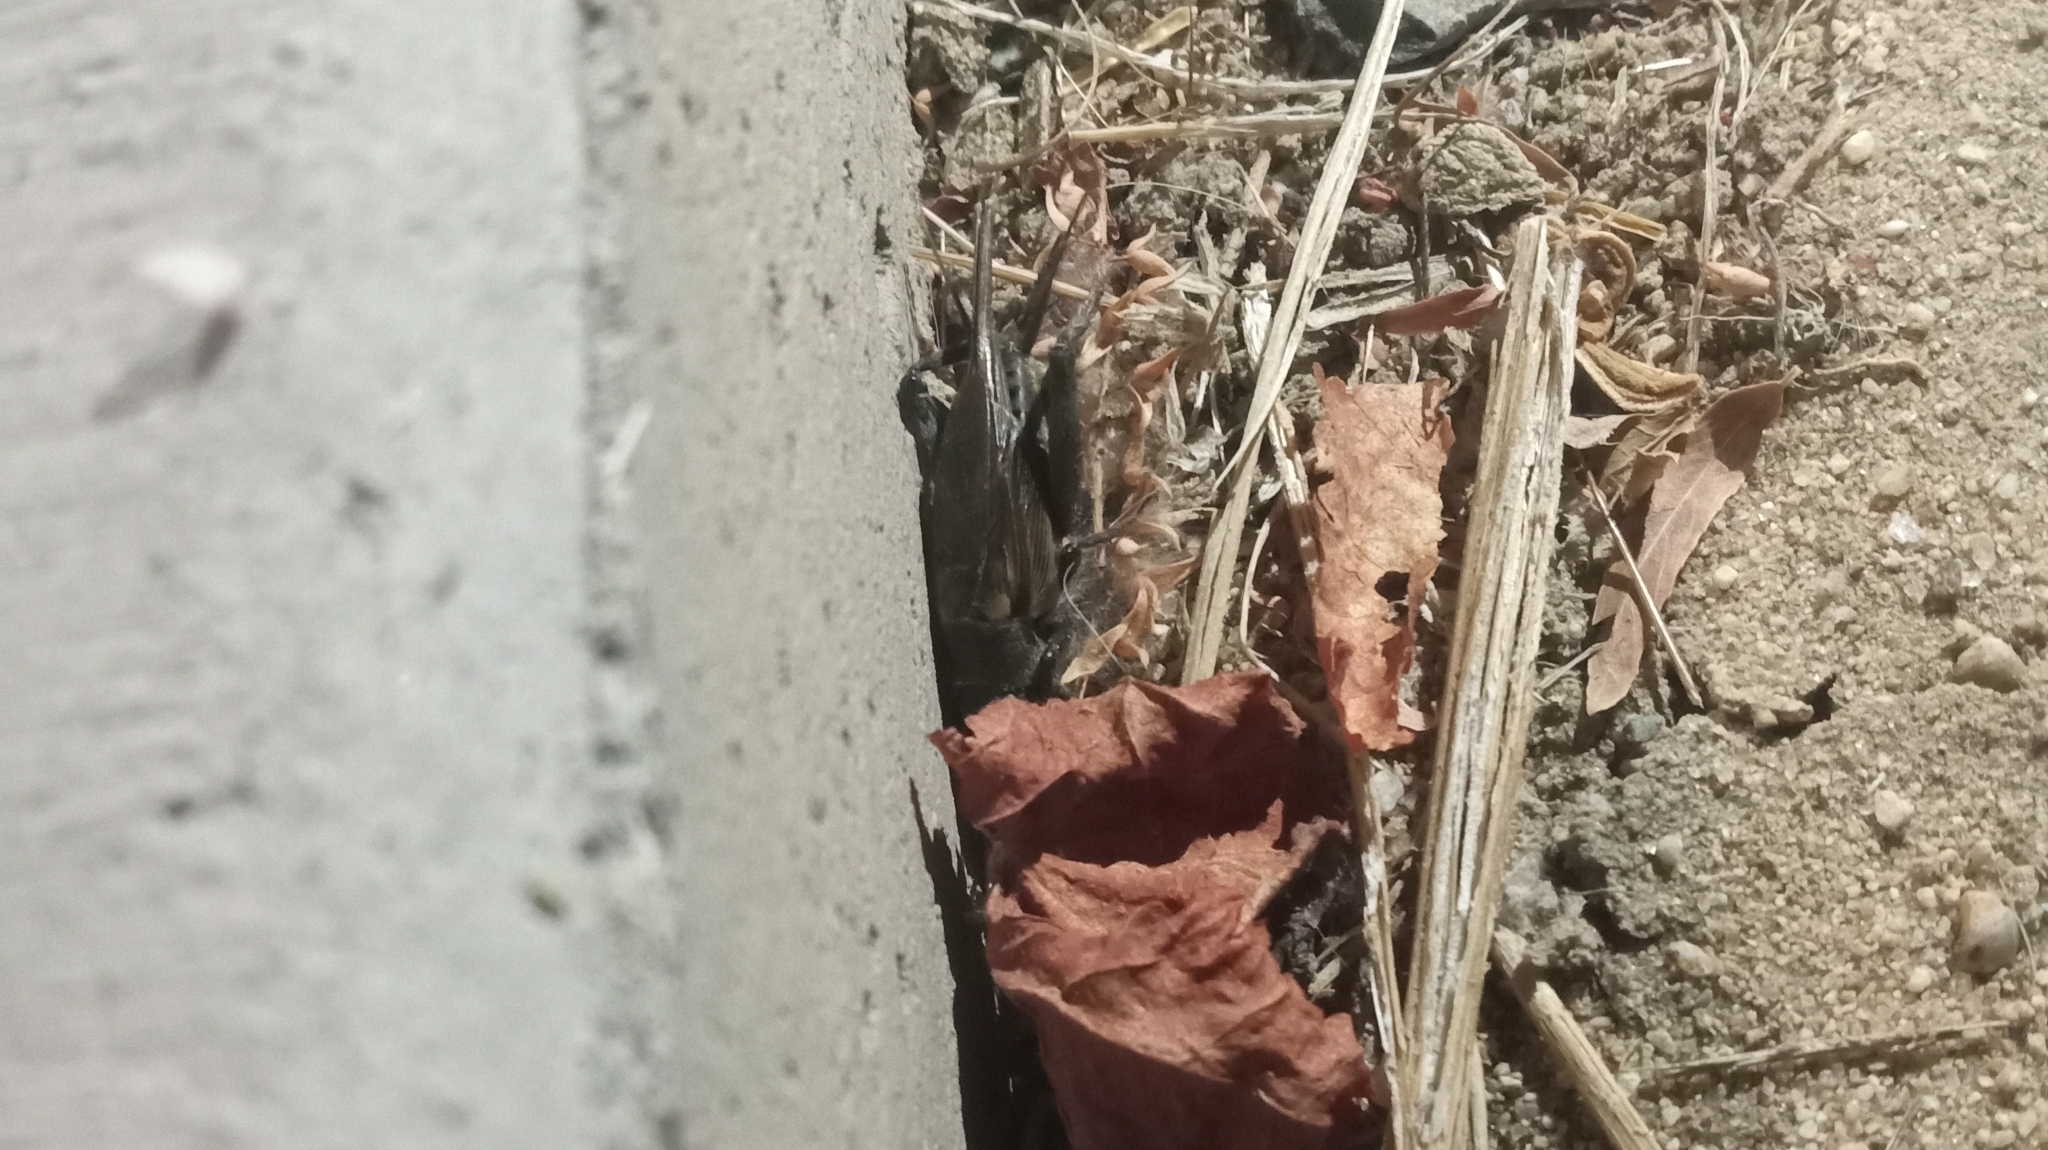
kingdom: Animalia
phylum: Arthropoda
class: Insecta
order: Orthoptera
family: Gryllidae
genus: Gryllus
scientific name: Gryllus
